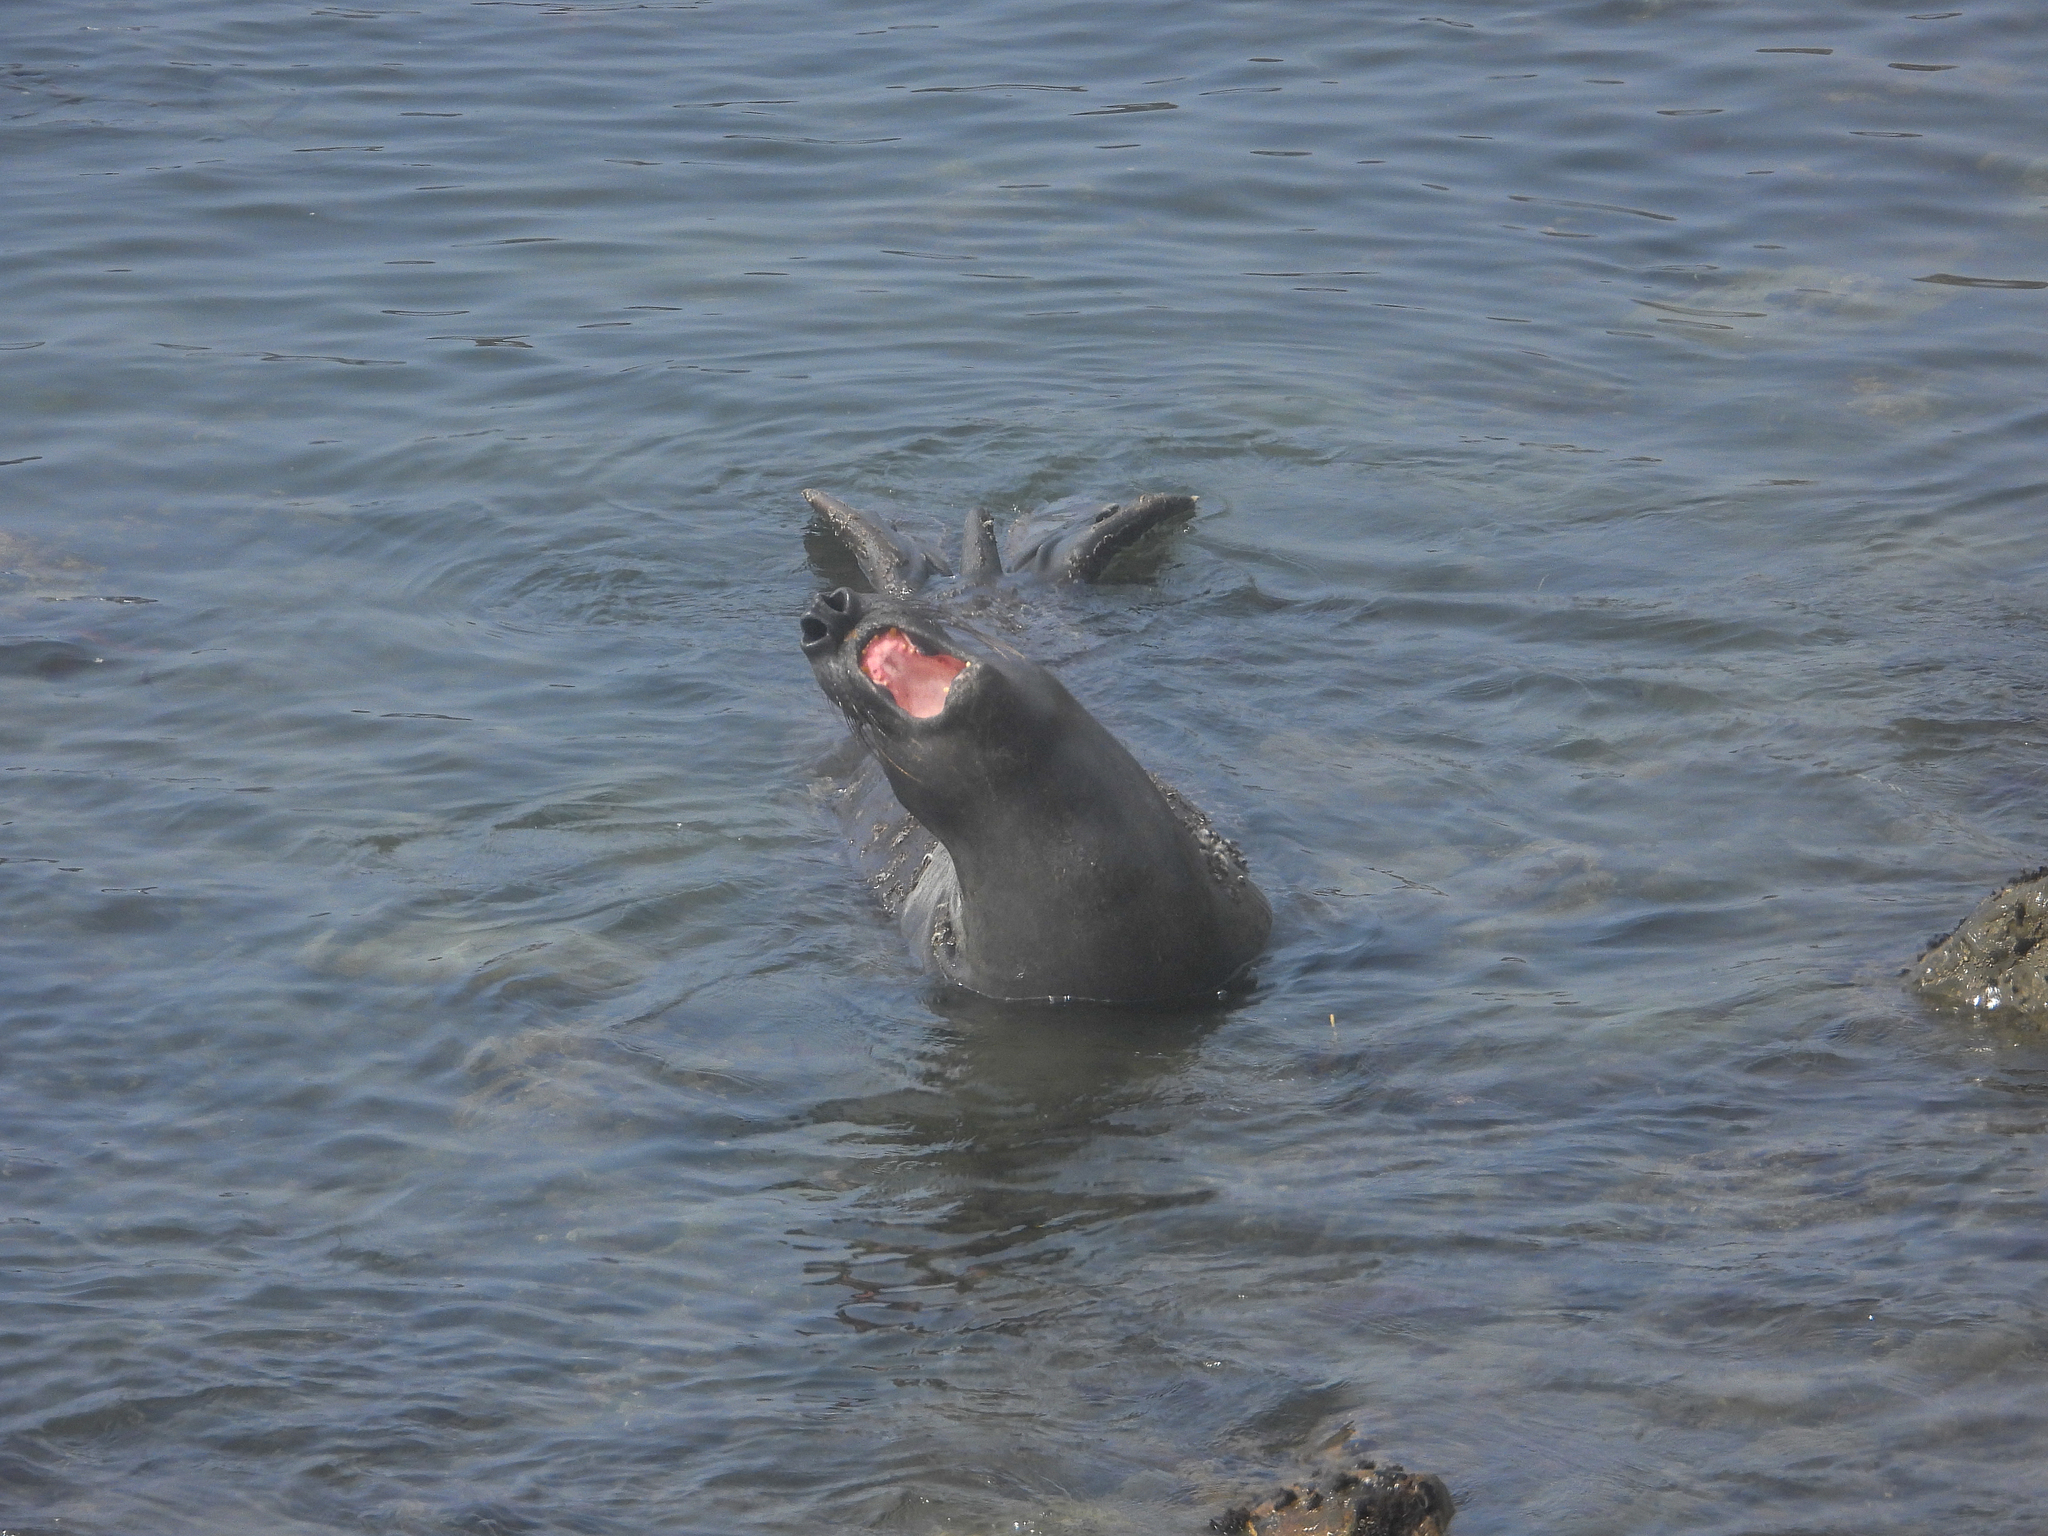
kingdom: Animalia
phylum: Chordata
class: Mammalia
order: Carnivora
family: Phocidae
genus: Mirounga
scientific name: Mirounga angustirostris
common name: Northern elephant seal
